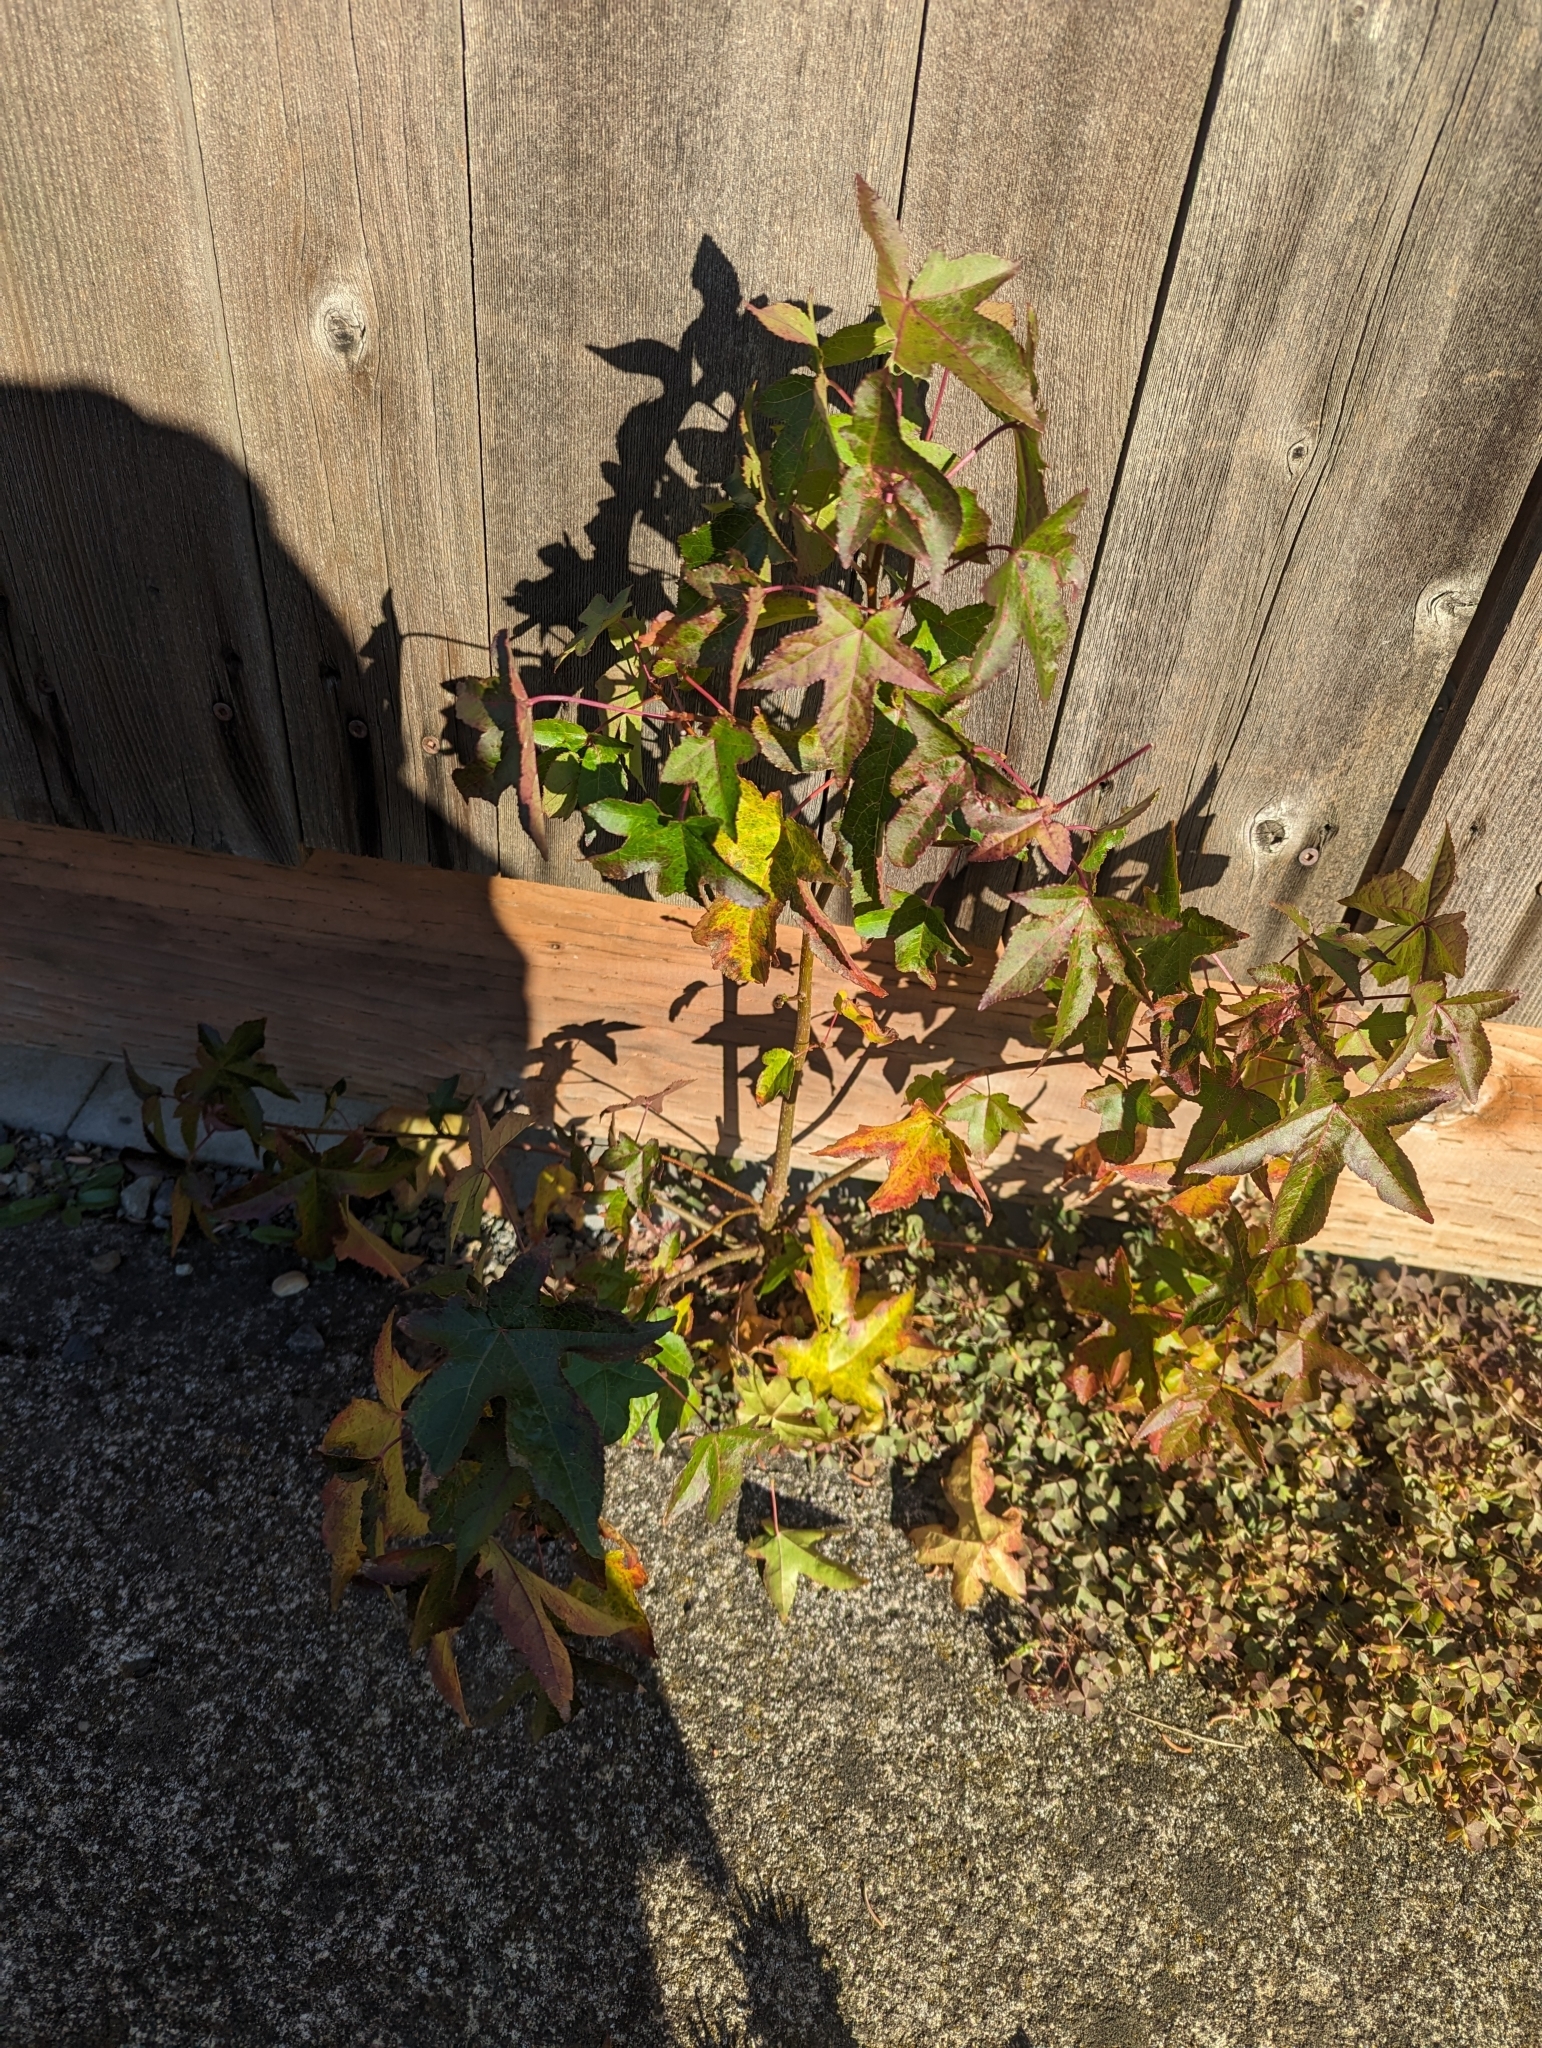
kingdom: Plantae
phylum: Tracheophyta
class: Magnoliopsida
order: Saxifragales
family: Altingiaceae
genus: Liquidambar
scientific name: Liquidambar styraciflua
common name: Sweet gum
